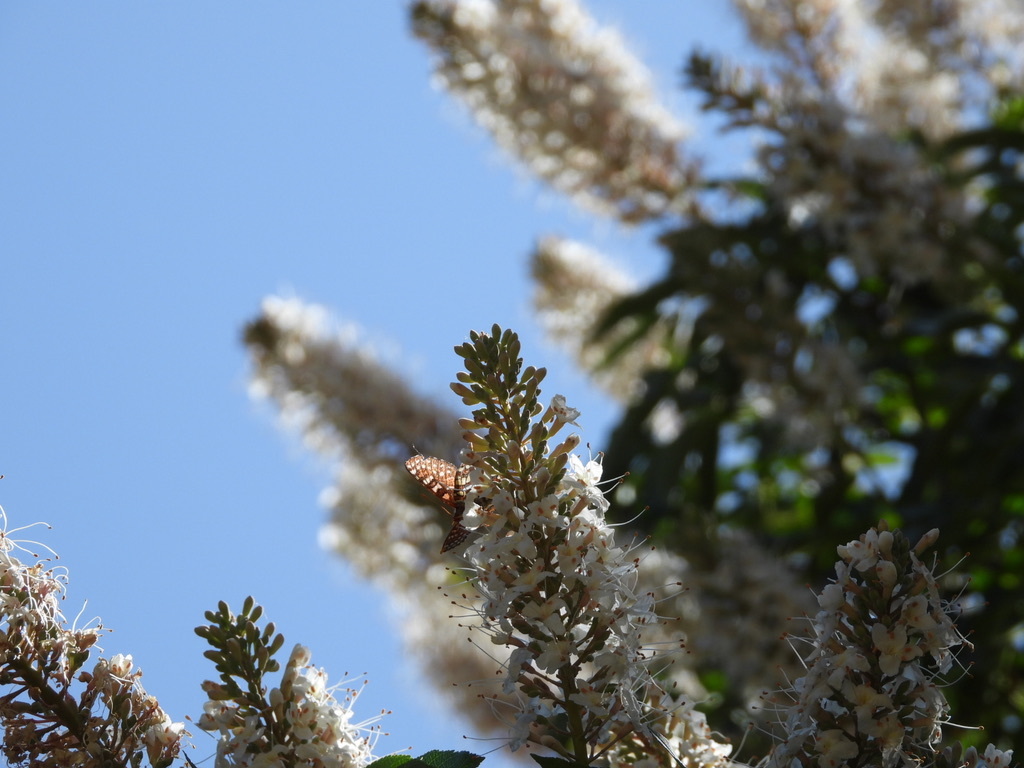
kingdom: Animalia
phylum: Arthropoda
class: Insecta
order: Lepidoptera
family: Nymphalidae
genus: Occidryas
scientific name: Occidryas chalcedona
